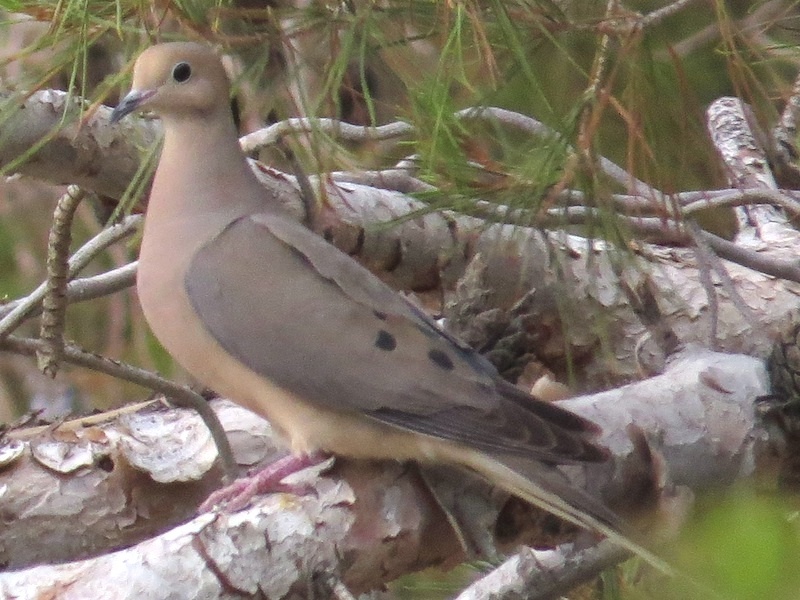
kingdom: Animalia
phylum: Chordata
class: Aves
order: Columbiformes
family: Columbidae
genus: Zenaida
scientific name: Zenaida macroura
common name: Mourning dove
